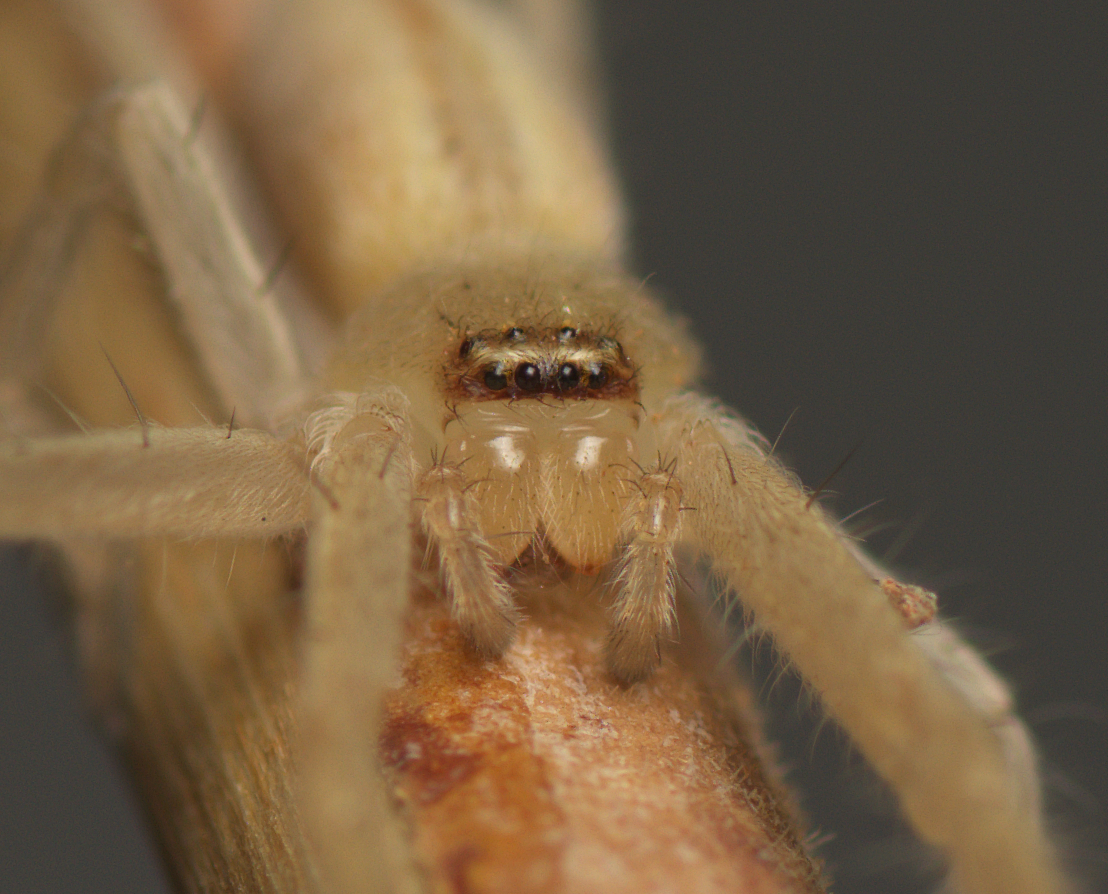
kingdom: Animalia
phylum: Arthropoda
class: Arachnida
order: Araneae
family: Sparassidae
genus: Neosparassus
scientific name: Neosparassus macilentus
